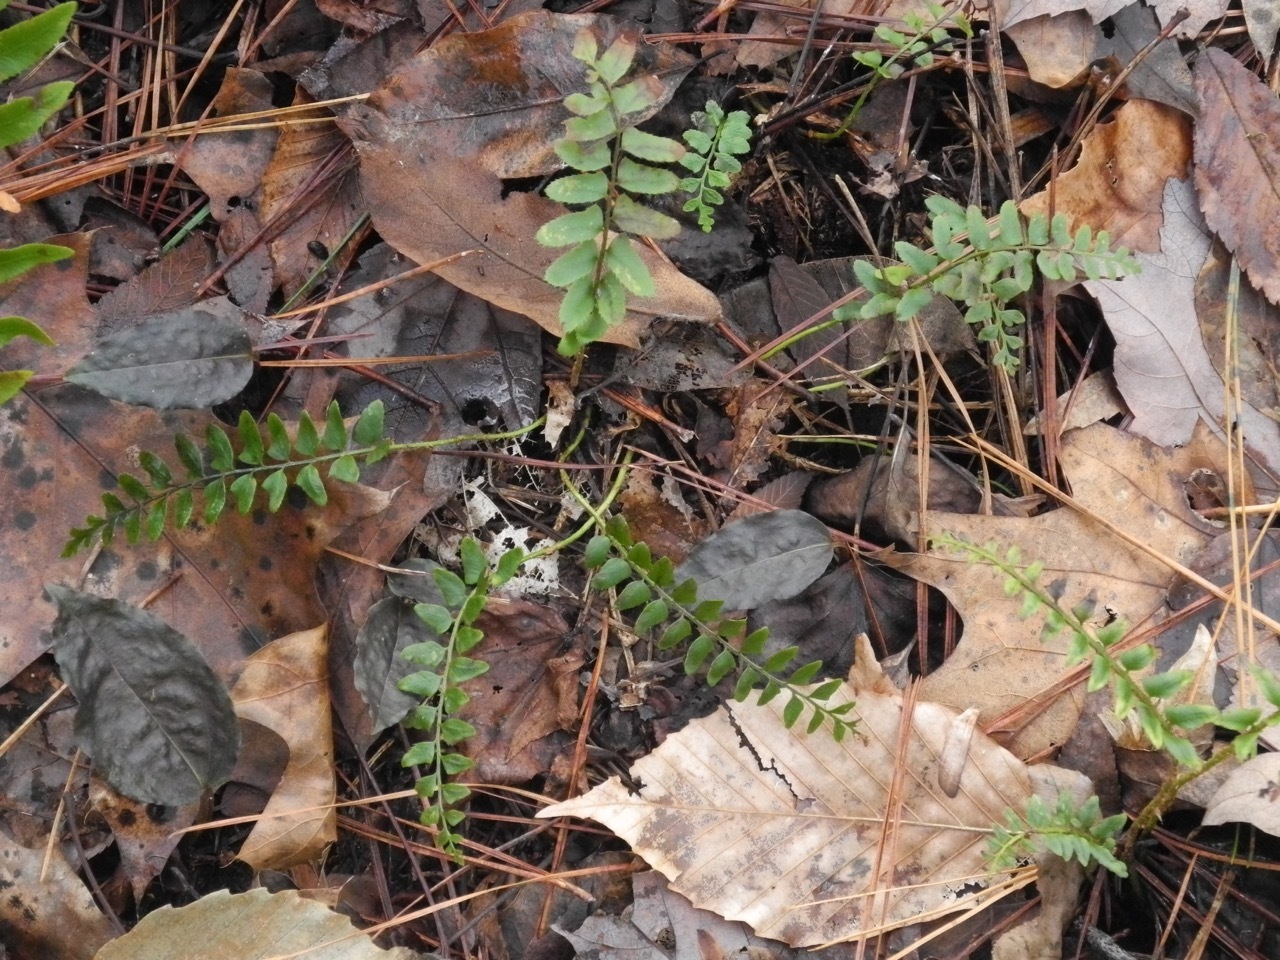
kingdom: Plantae
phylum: Tracheophyta
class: Polypodiopsida
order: Polypodiales
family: Dryopteridaceae
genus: Polystichum
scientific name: Polystichum acrostichoides
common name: Christmas fern
